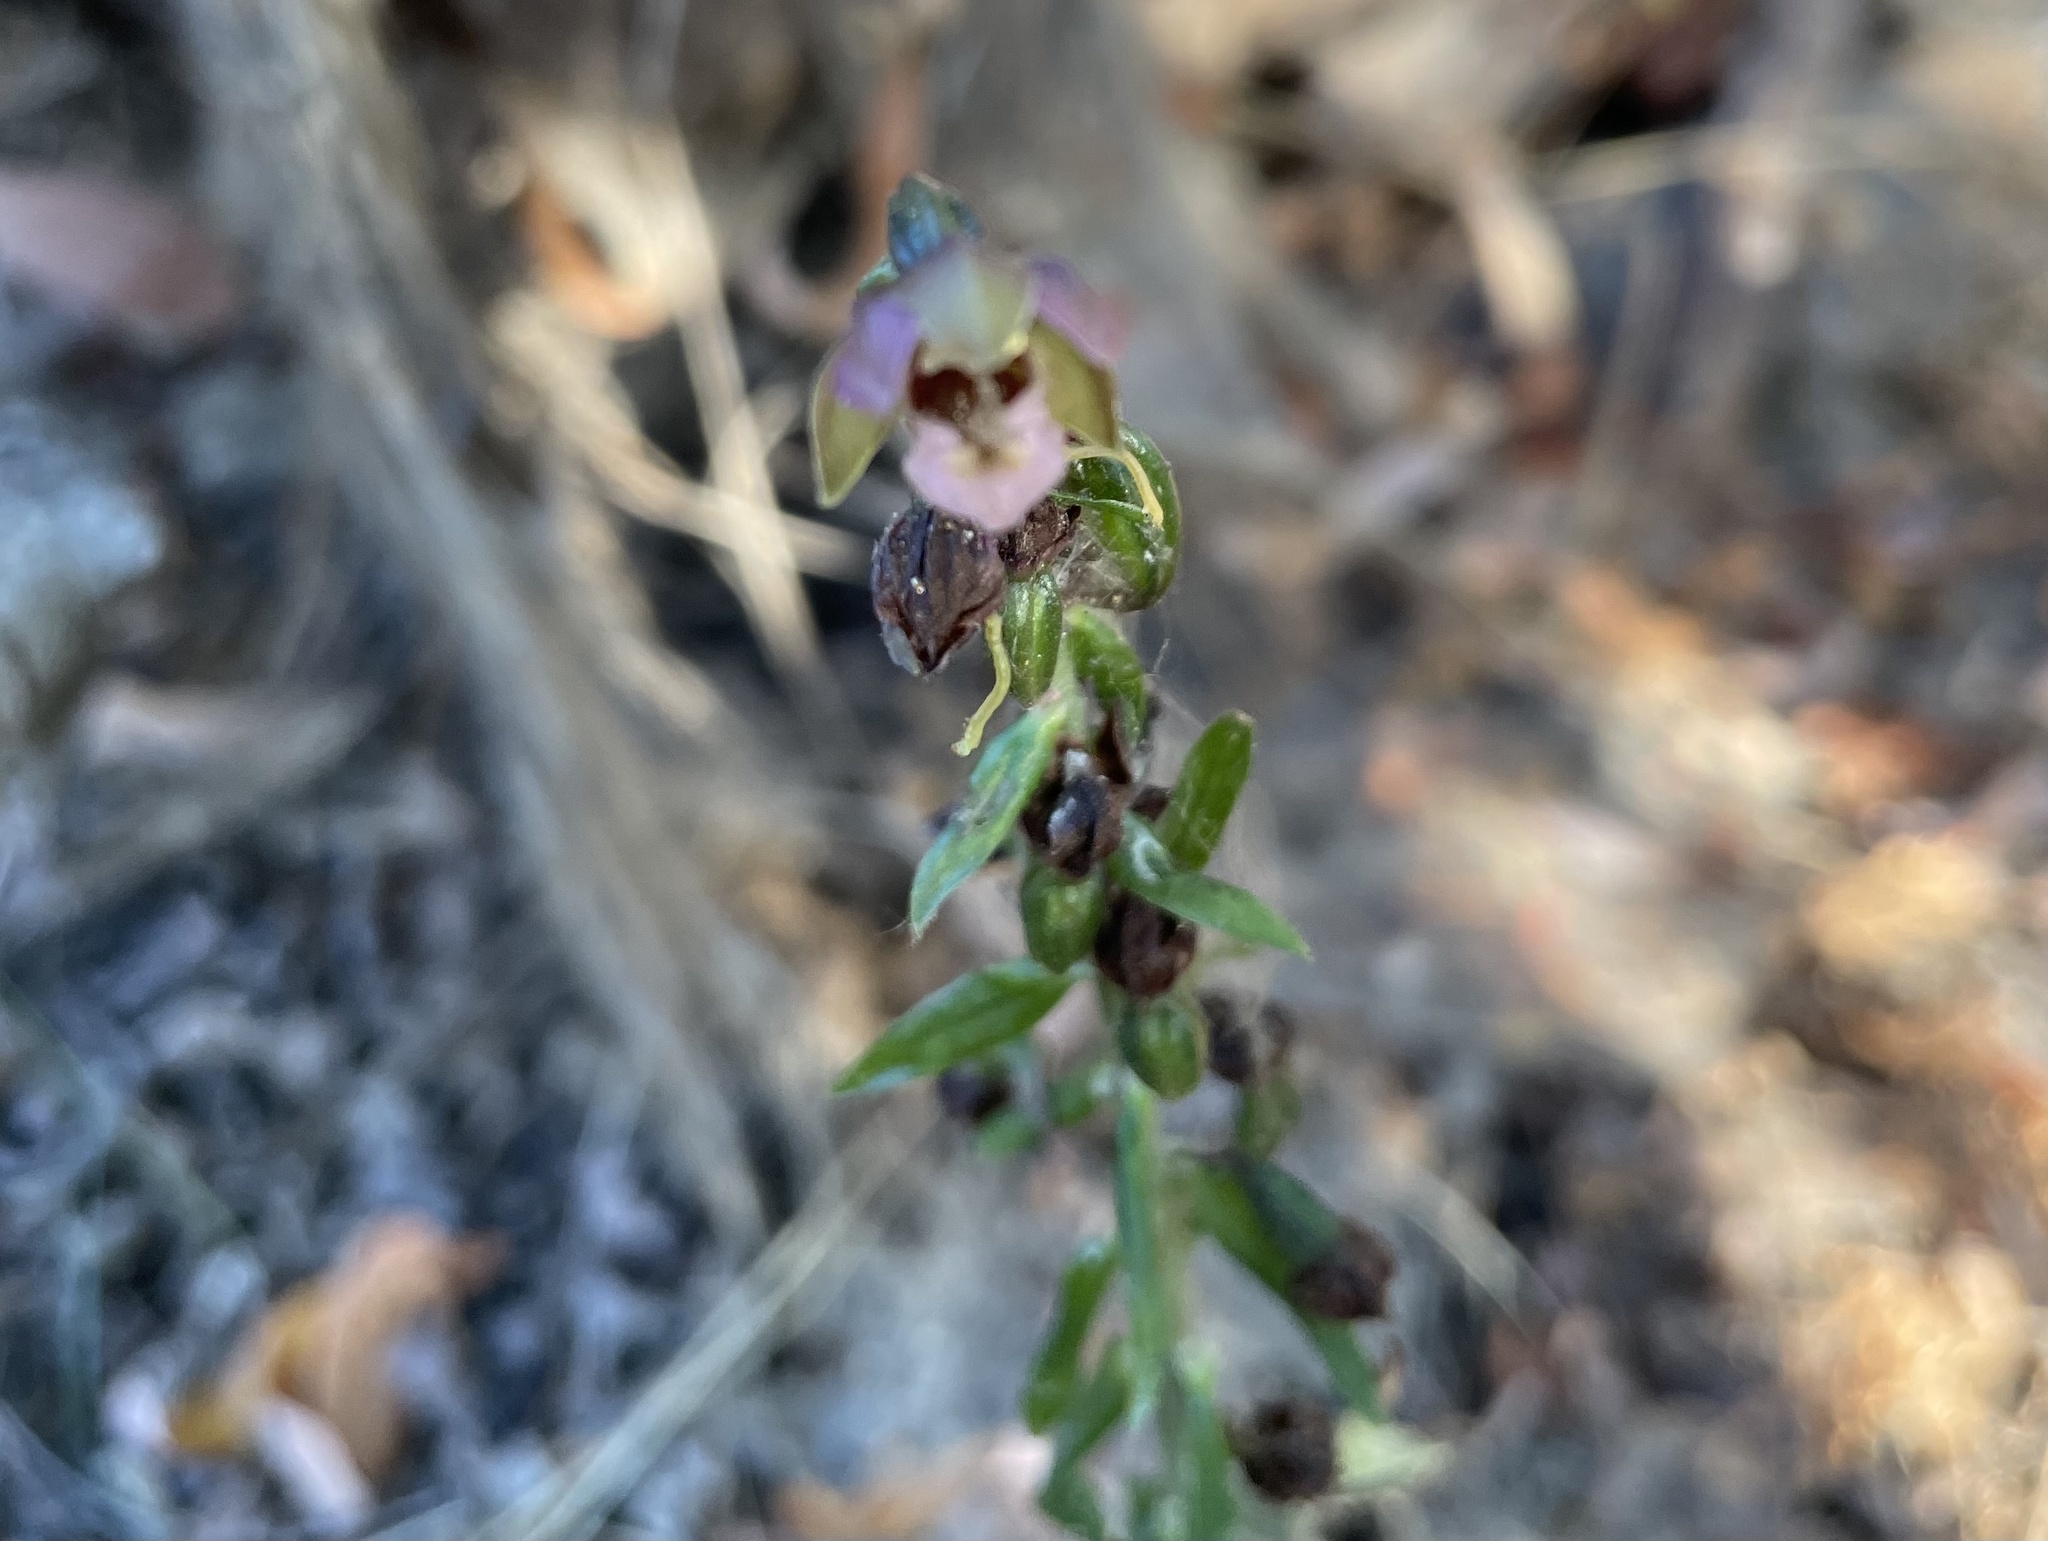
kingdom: Plantae
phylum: Tracheophyta
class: Liliopsida
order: Asparagales
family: Orchidaceae
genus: Epipactis
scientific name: Epipactis helleborine
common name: Broad-leaved helleborine
